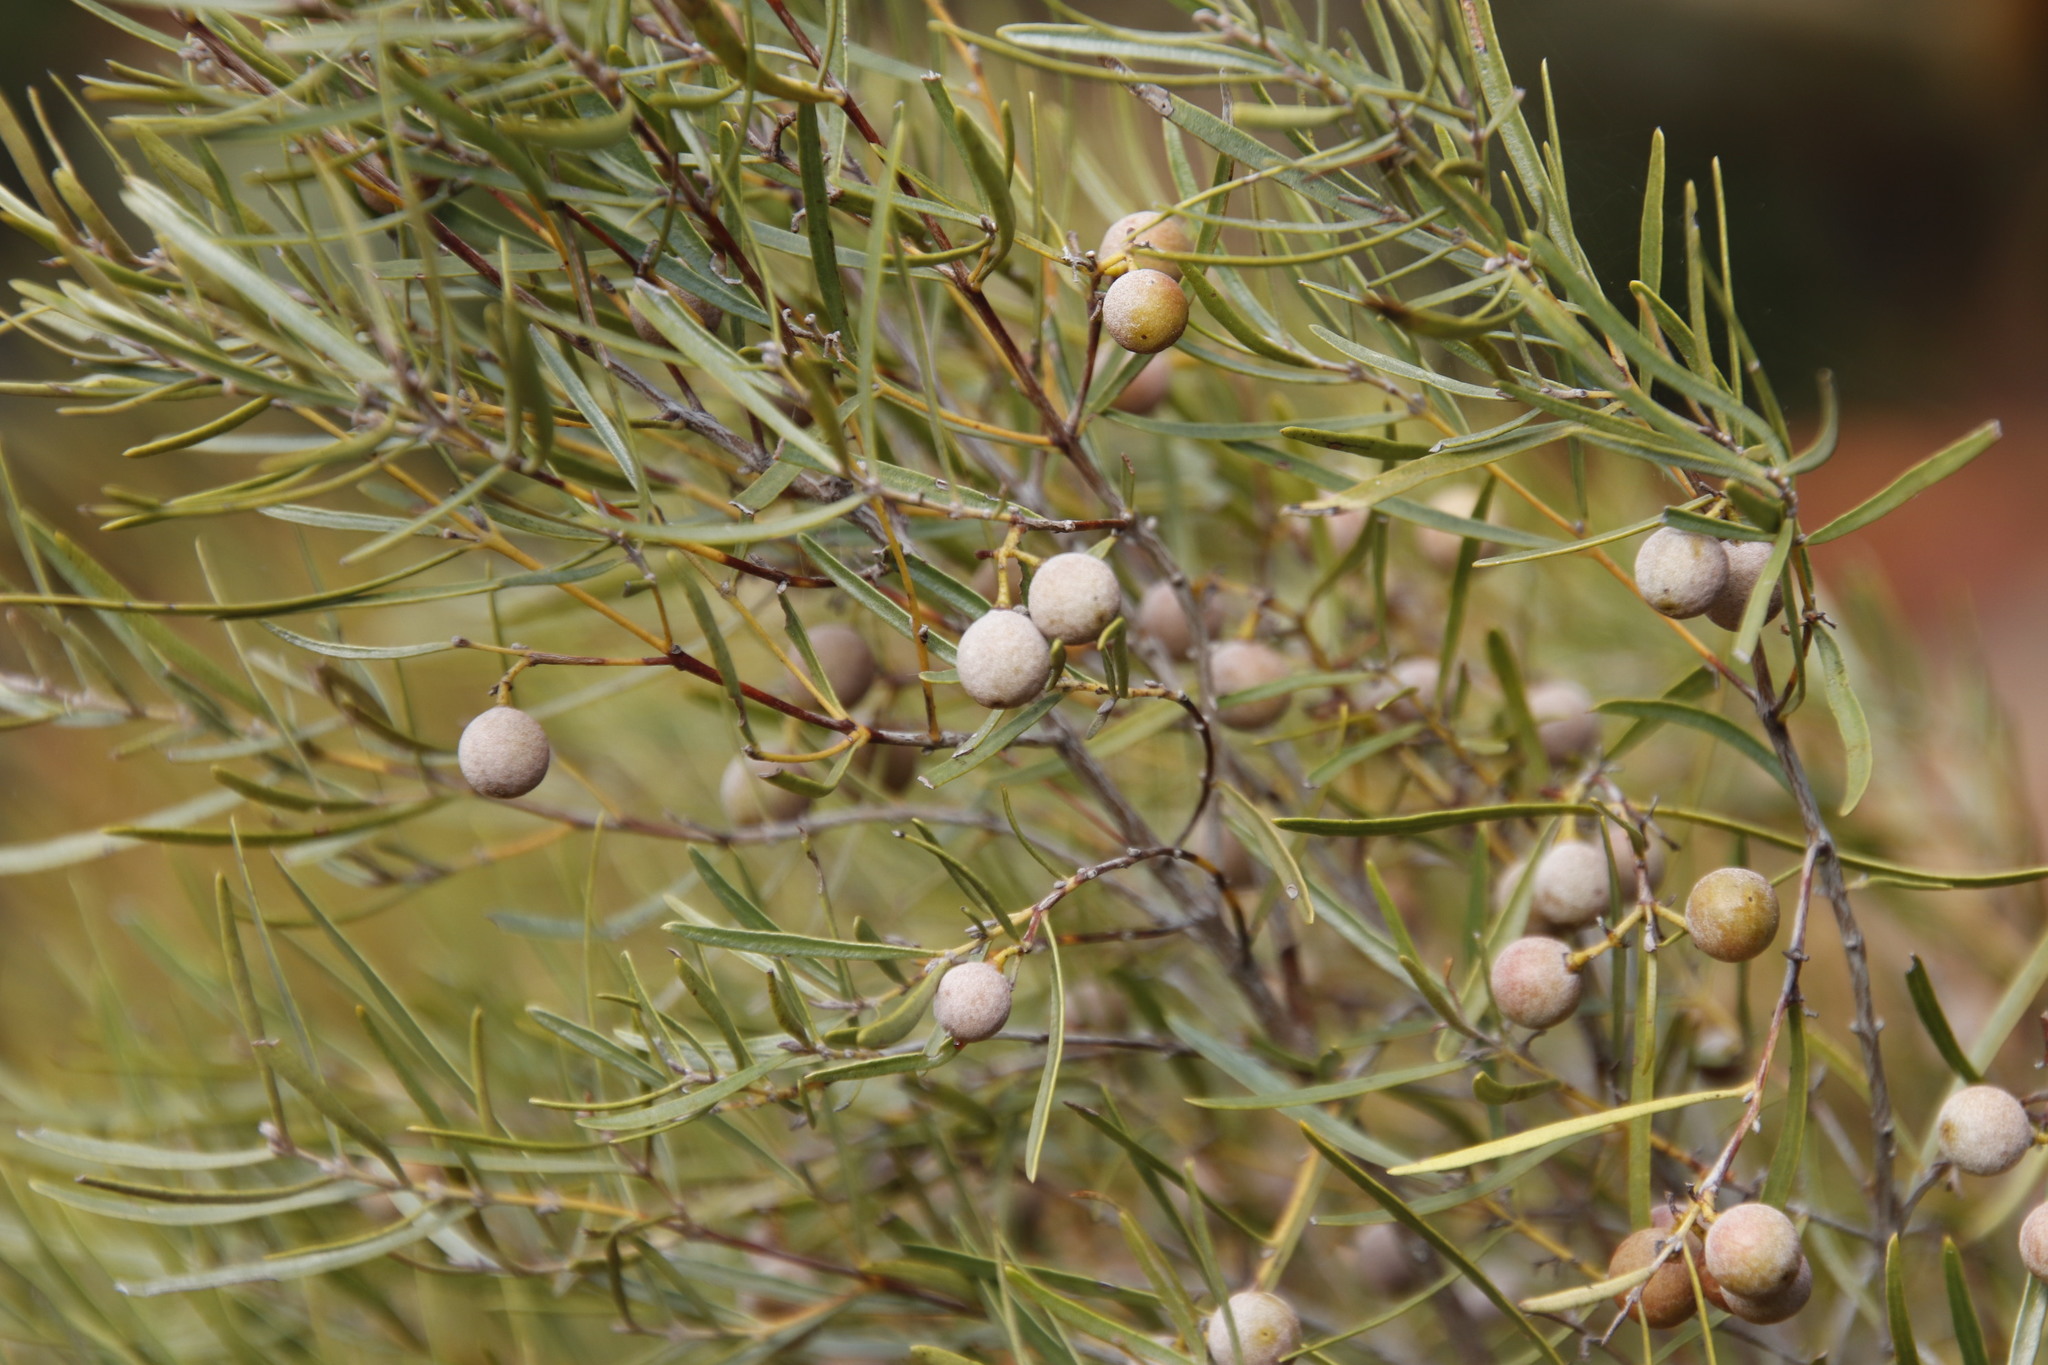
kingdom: Plantae
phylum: Tracheophyta
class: Magnoliopsida
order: Ericales
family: Ebenaceae
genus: Euclea
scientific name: Euclea linearis
